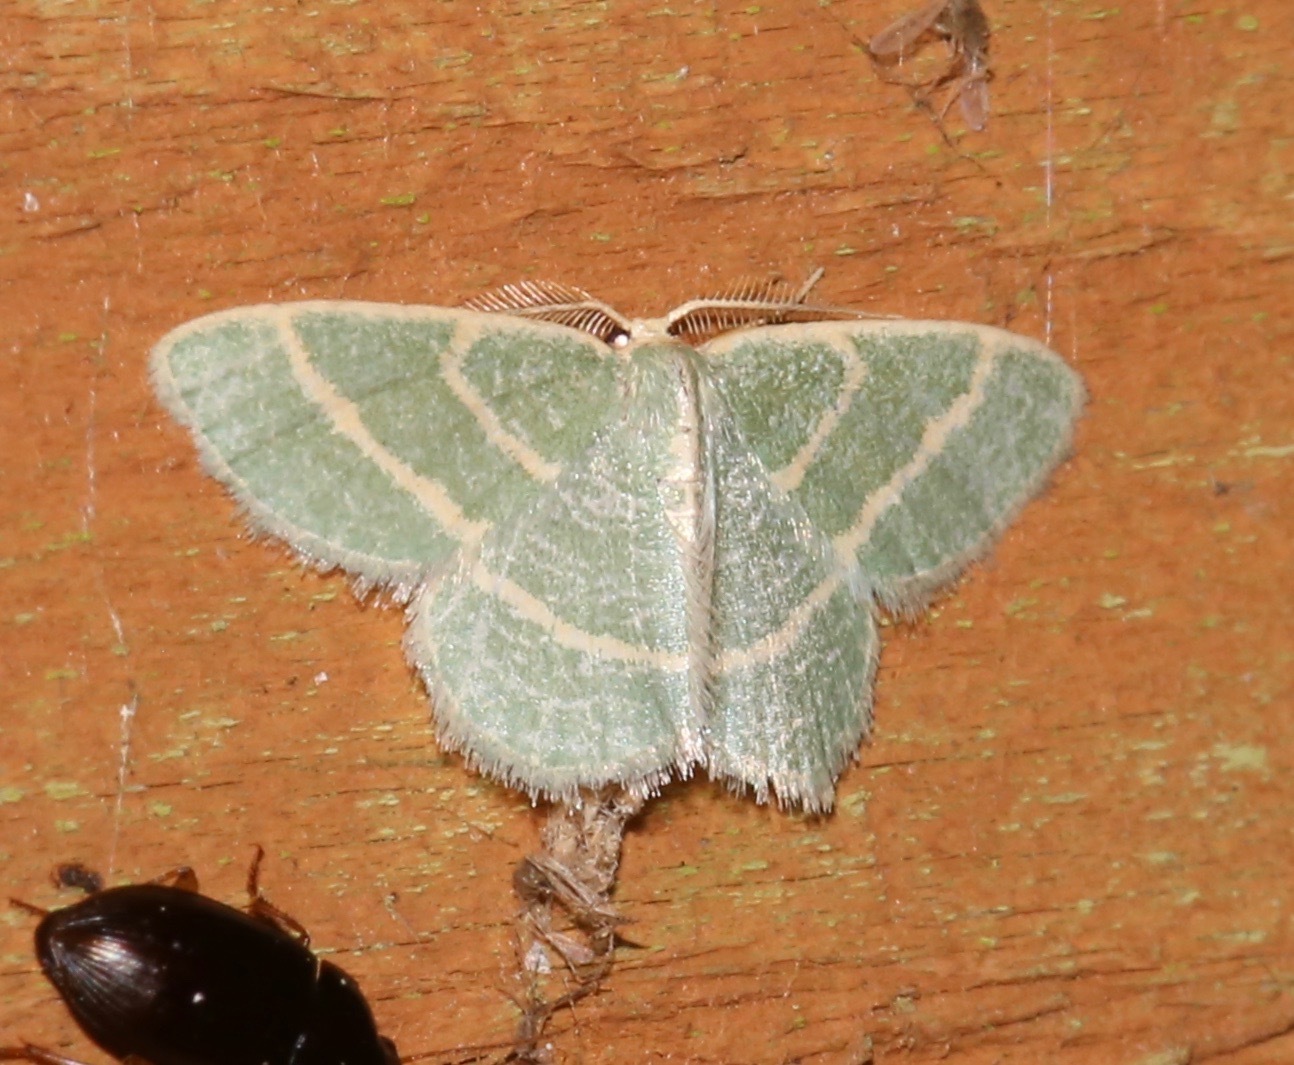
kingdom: Animalia
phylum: Arthropoda
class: Insecta
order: Lepidoptera
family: Geometridae
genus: Chlorochlamys
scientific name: Chlorochlamys chloroleucaria
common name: Blackberry looper
